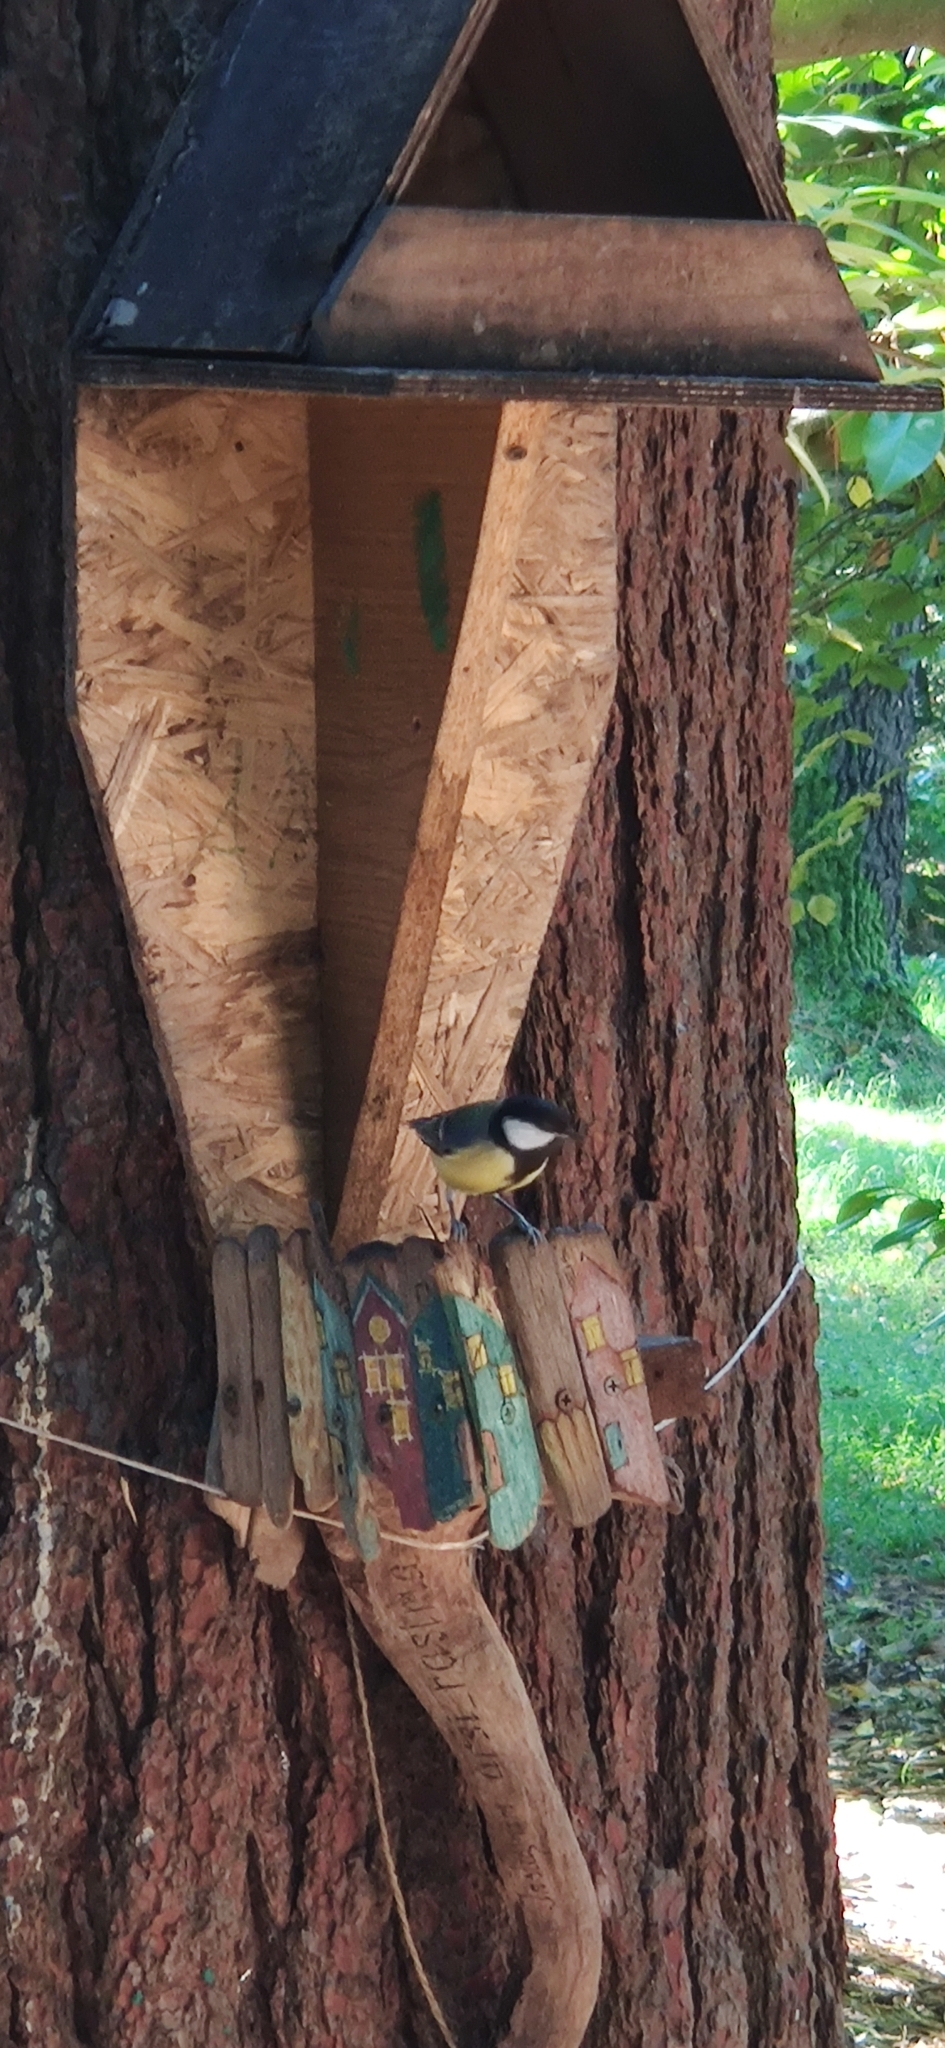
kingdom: Animalia
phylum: Chordata
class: Aves
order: Passeriformes
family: Paridae
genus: Parus
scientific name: Parus major
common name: Great tit
